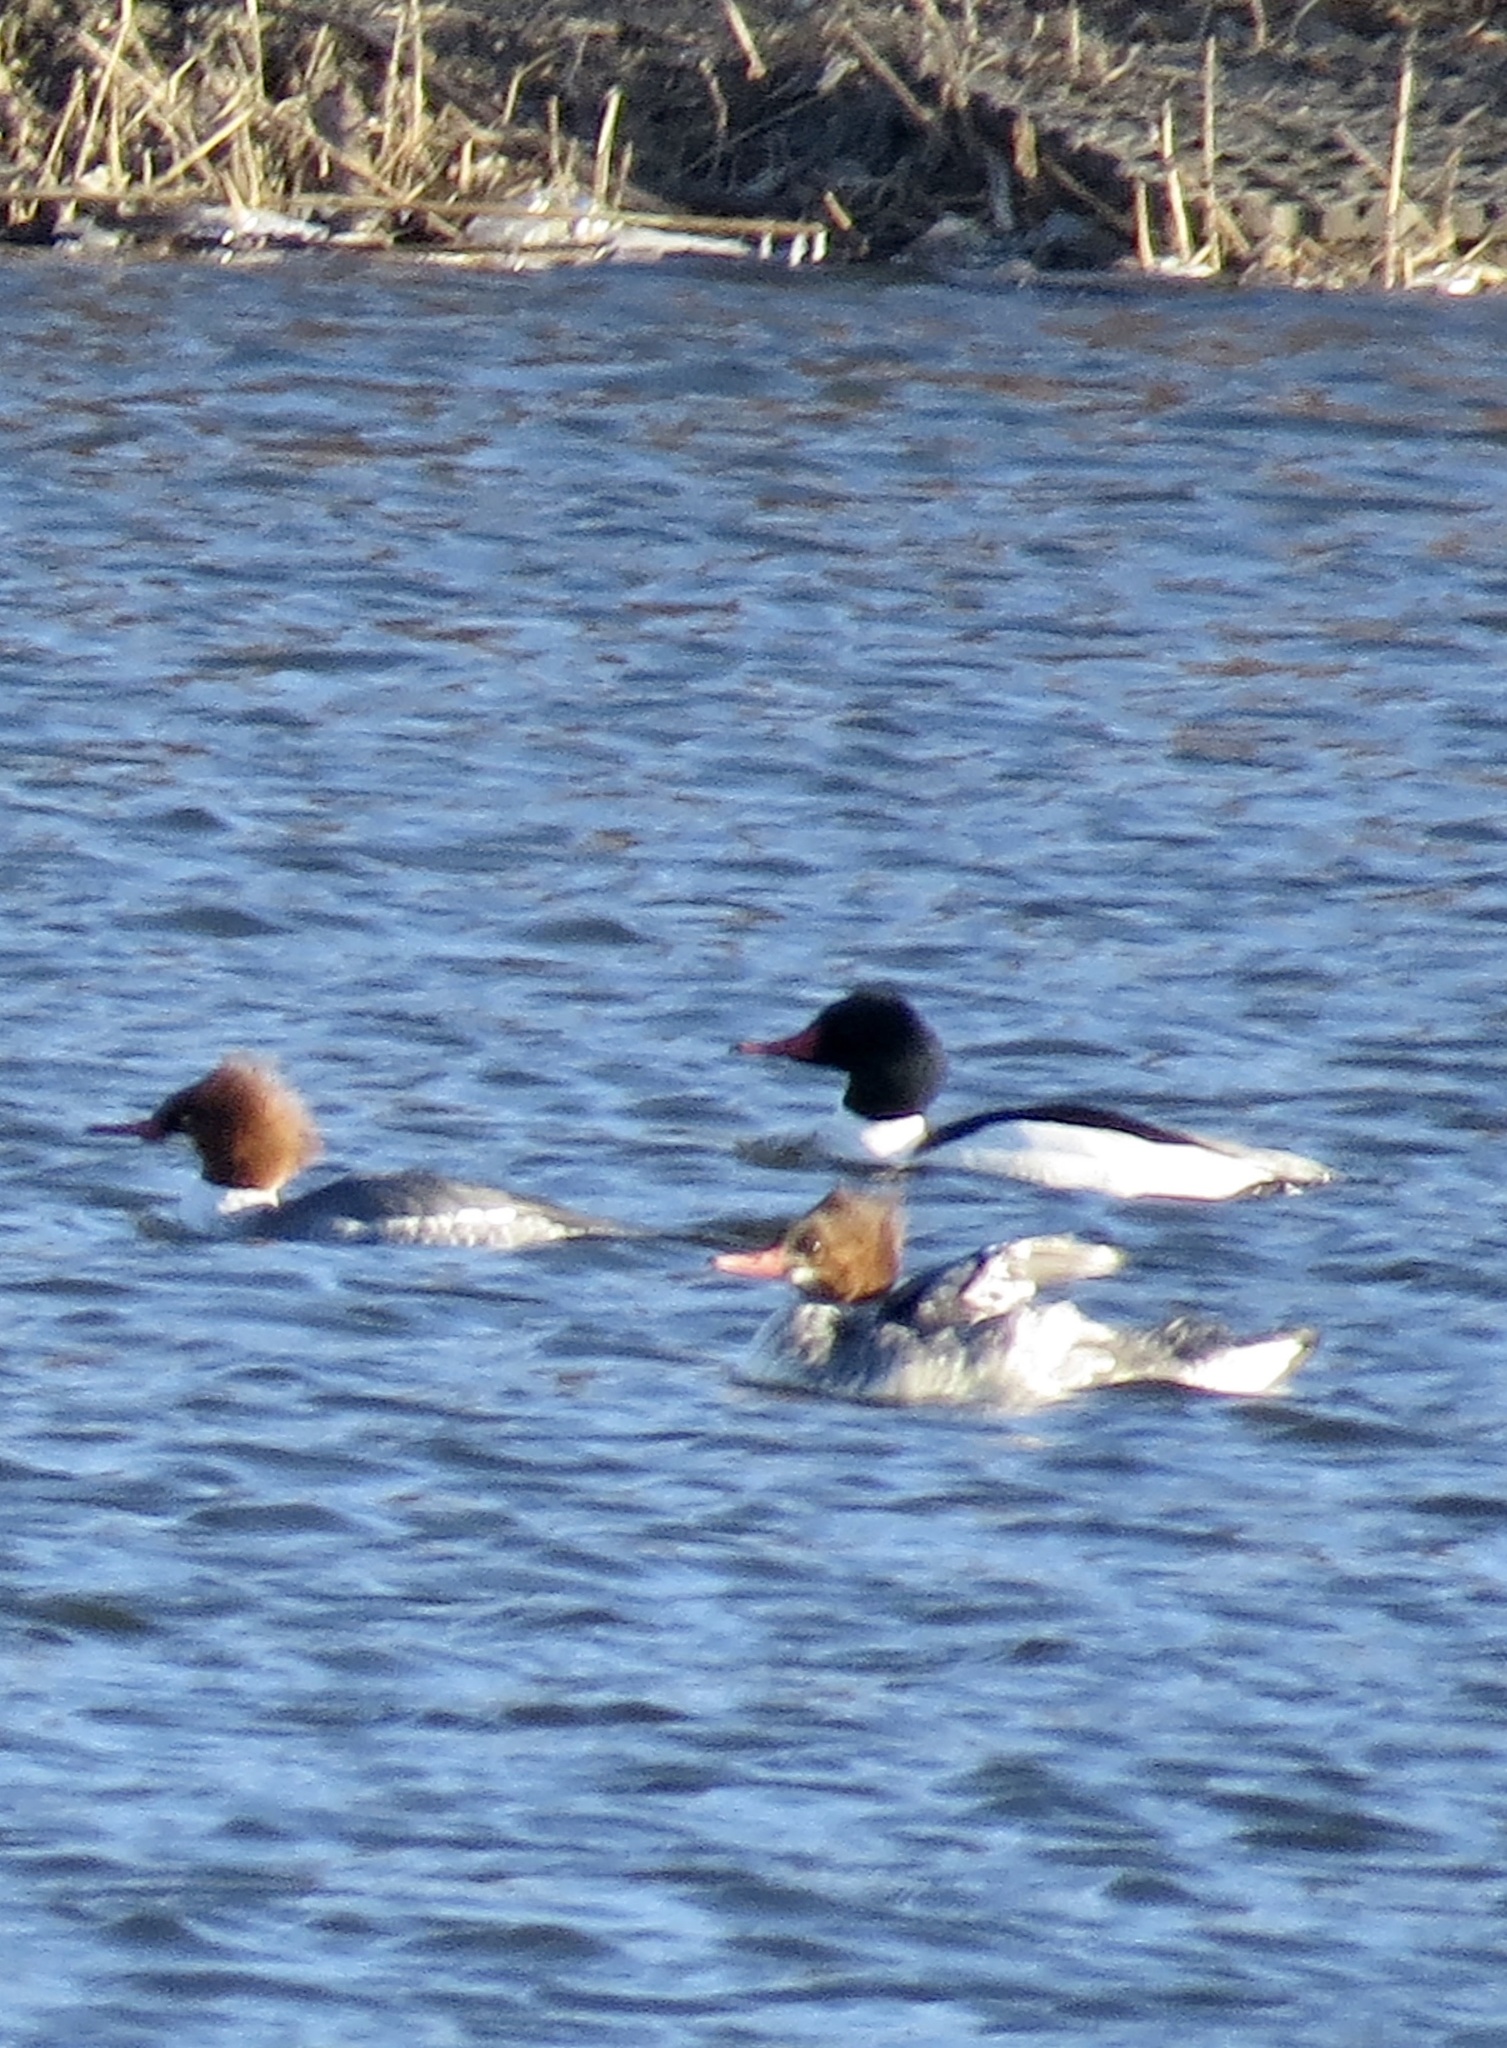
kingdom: Animalia
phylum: Chordata
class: Aves
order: Anseriformes
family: Anatidae
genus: Mergus
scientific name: Mergus merganser
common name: Common merganser
